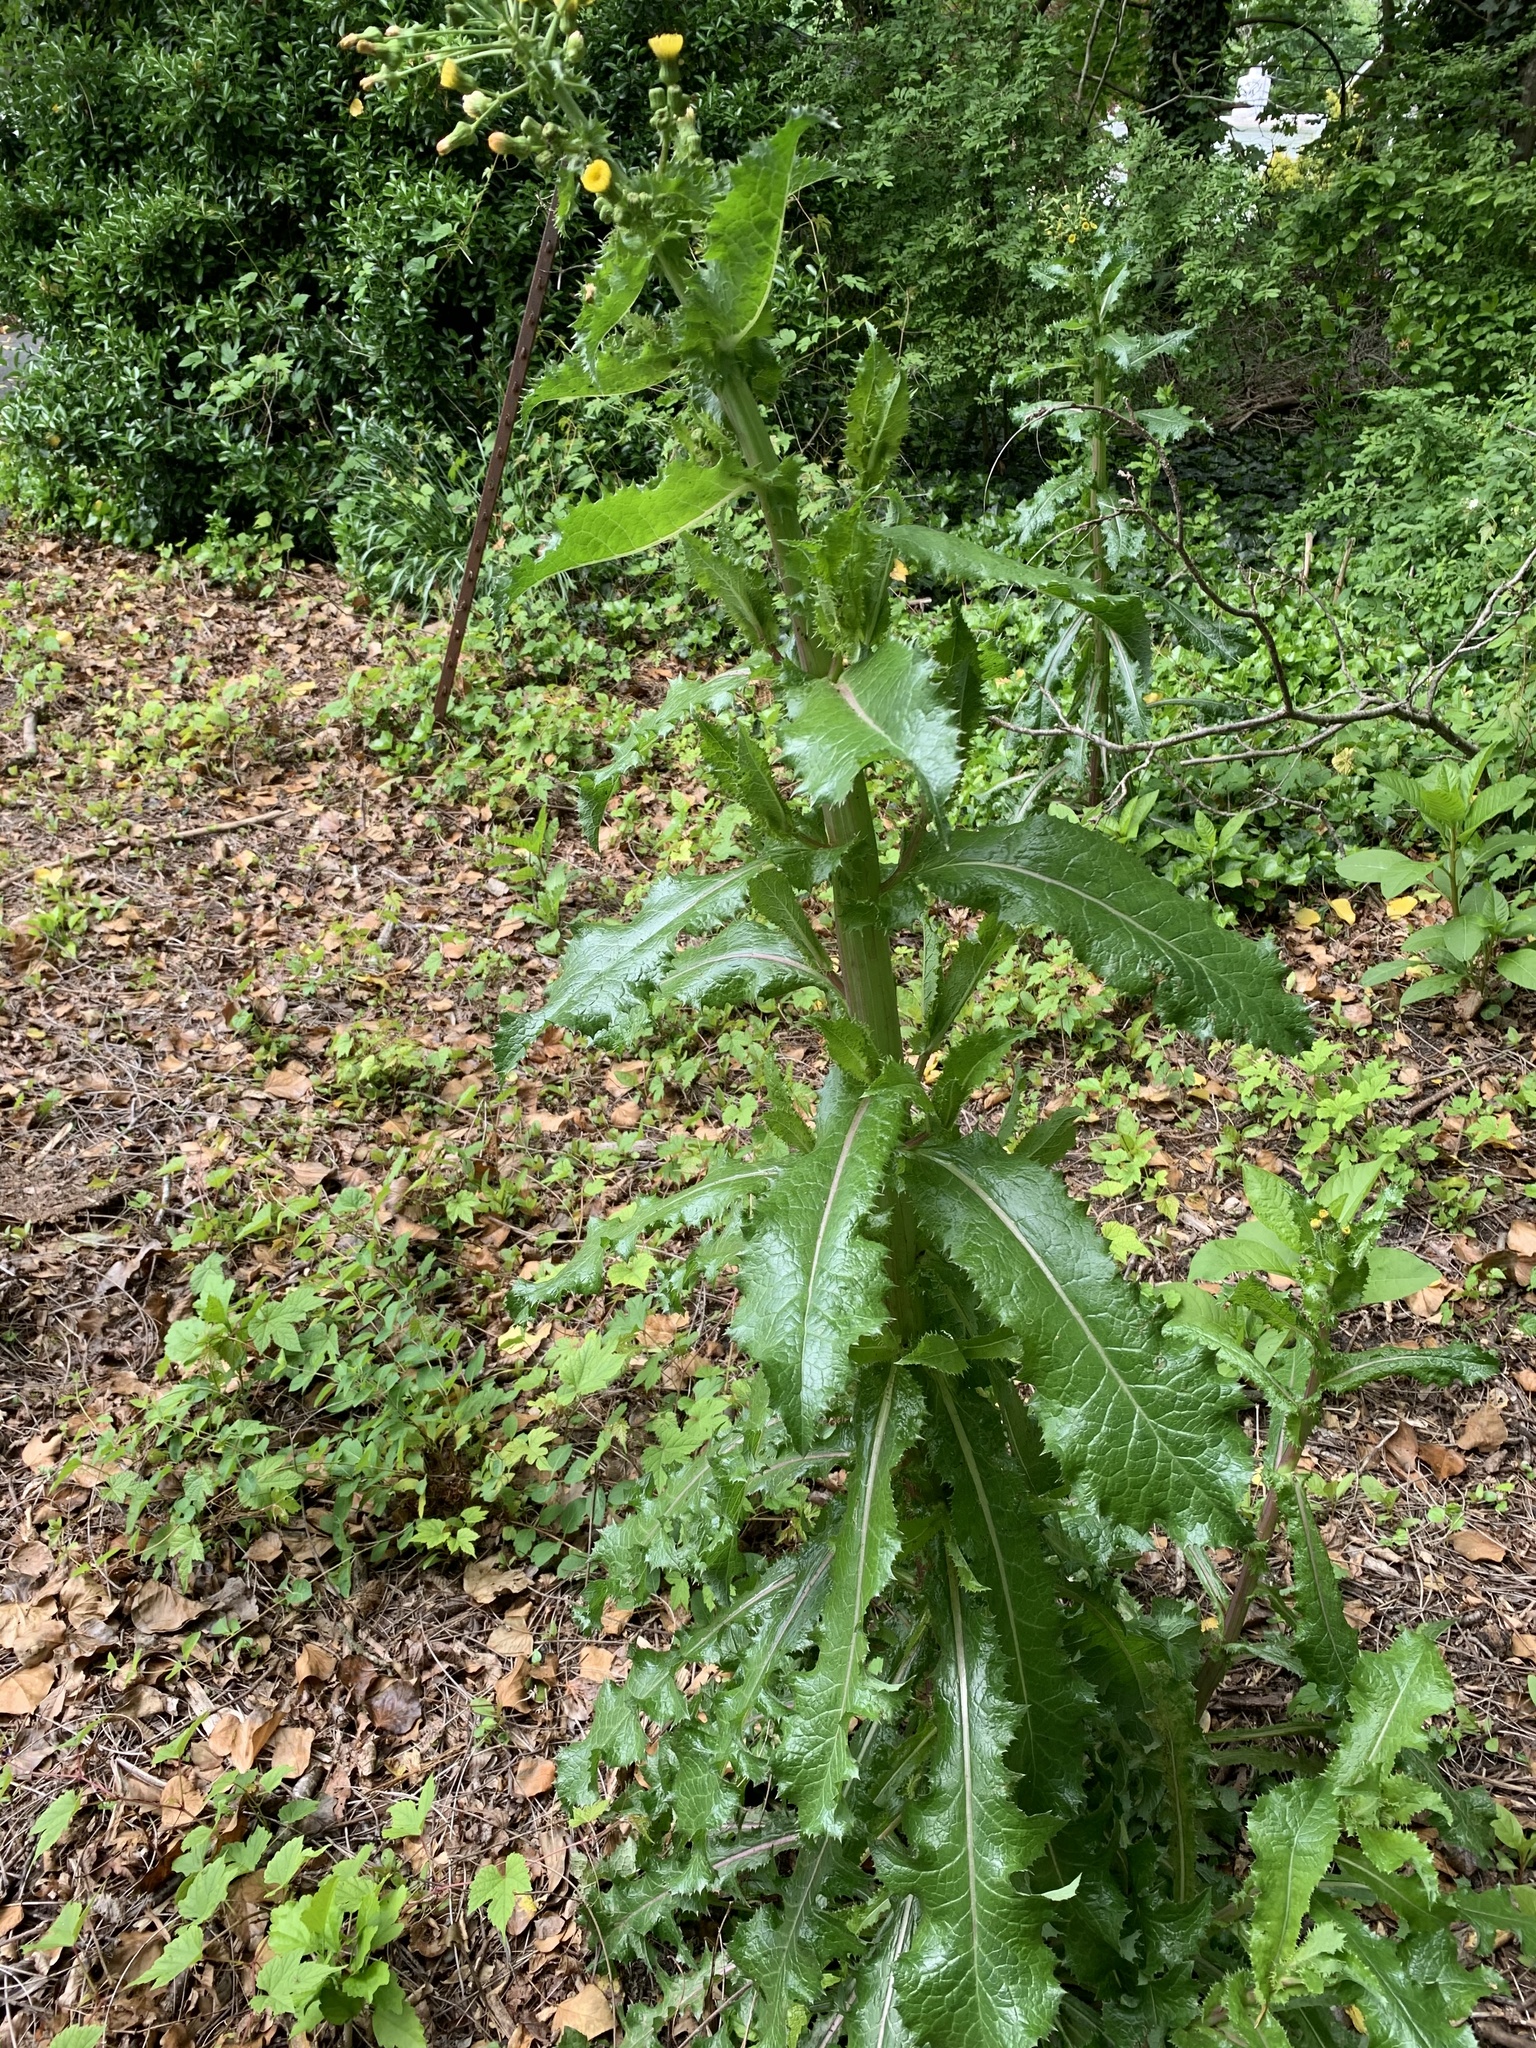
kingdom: Plantae
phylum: Tracheophyta
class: Magnoliopsida
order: Asterales
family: Asteraceae
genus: Sonchus
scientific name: Sonchus asper
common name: Prickly sow-thistle
